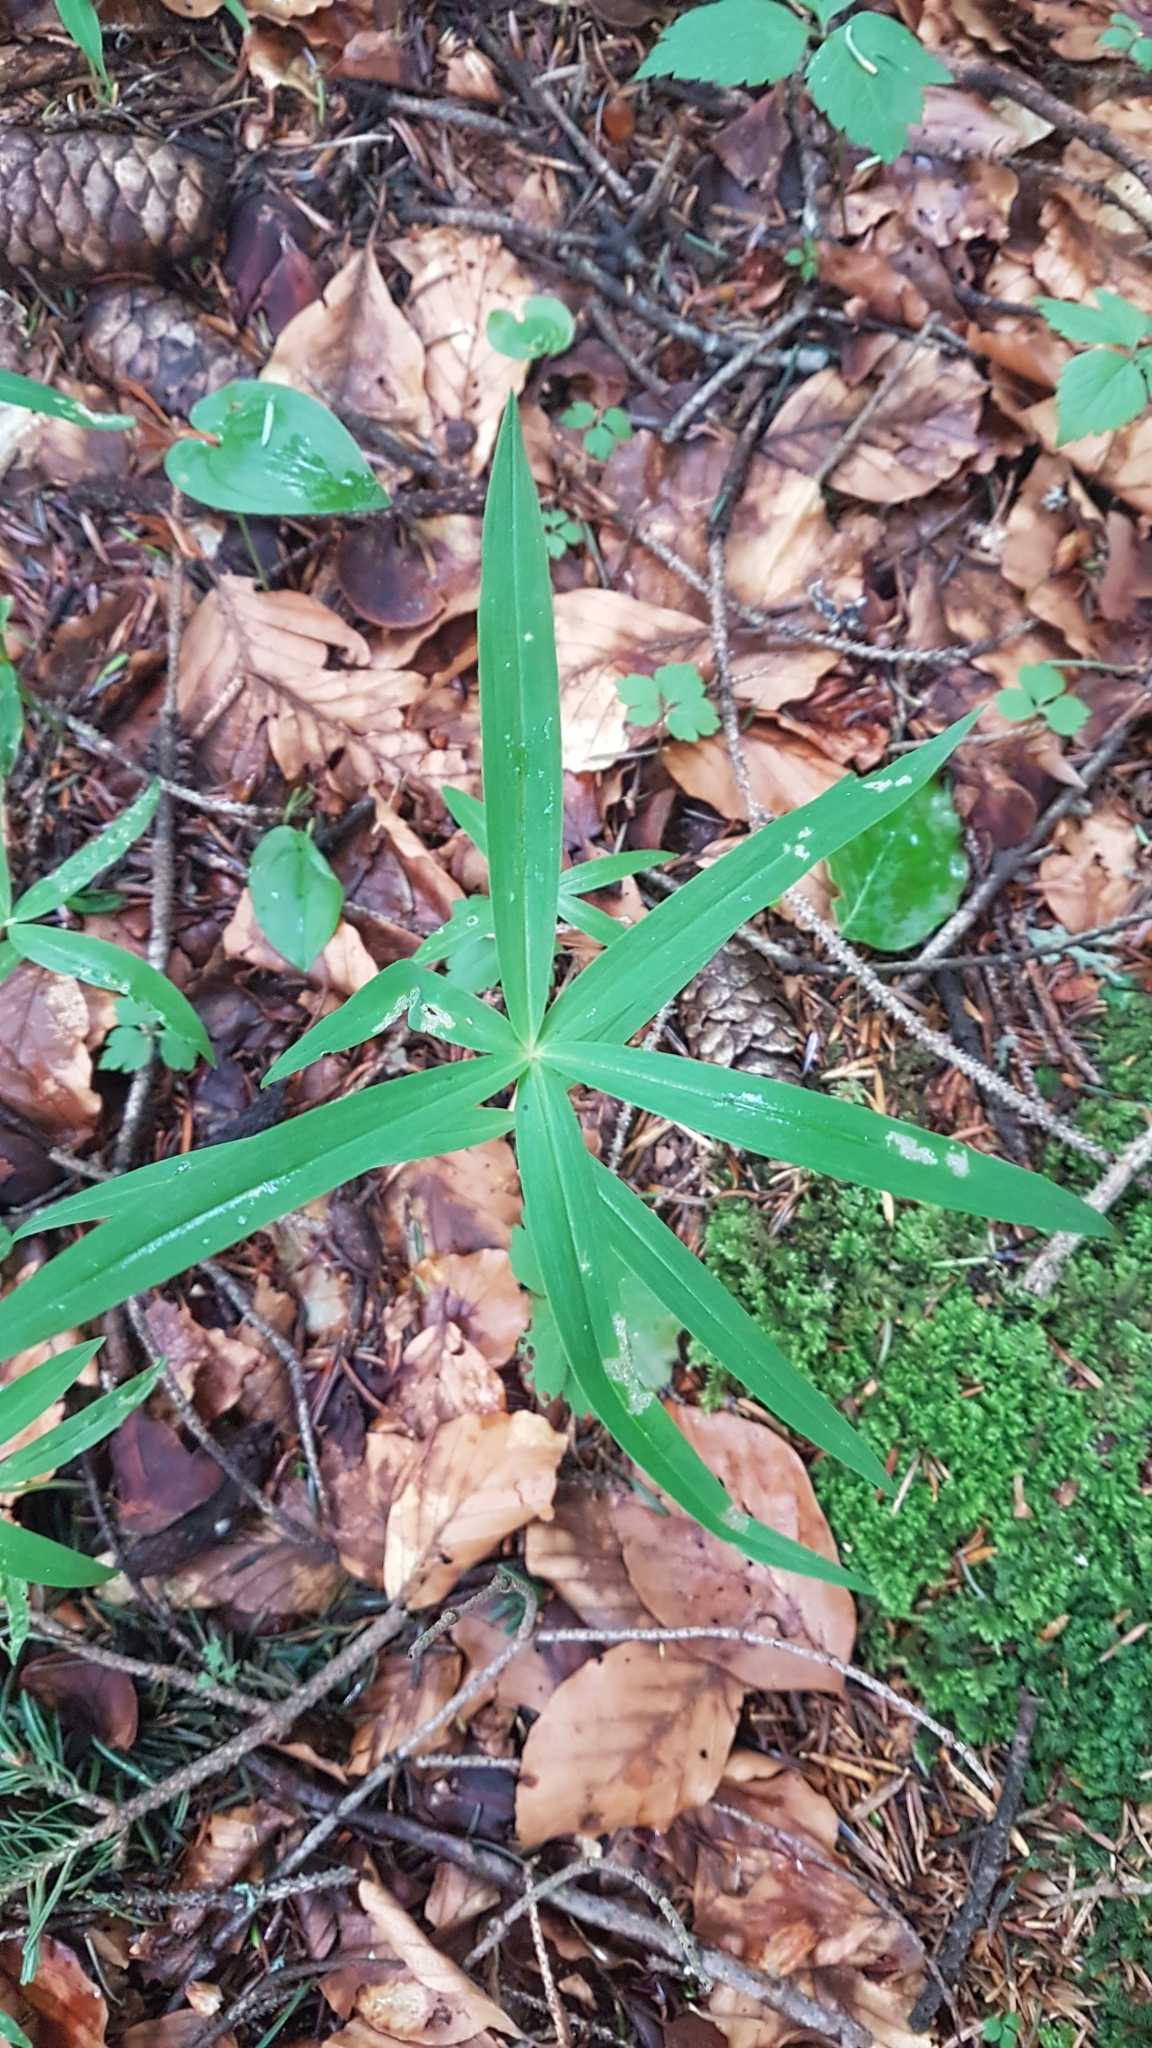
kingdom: Plantae
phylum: Tracheophyta
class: Liliopsida
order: Asparagales
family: Asparagaceae
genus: Polygonatum
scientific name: Polygonatum verticillatum
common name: Whorled solomon's-seal
